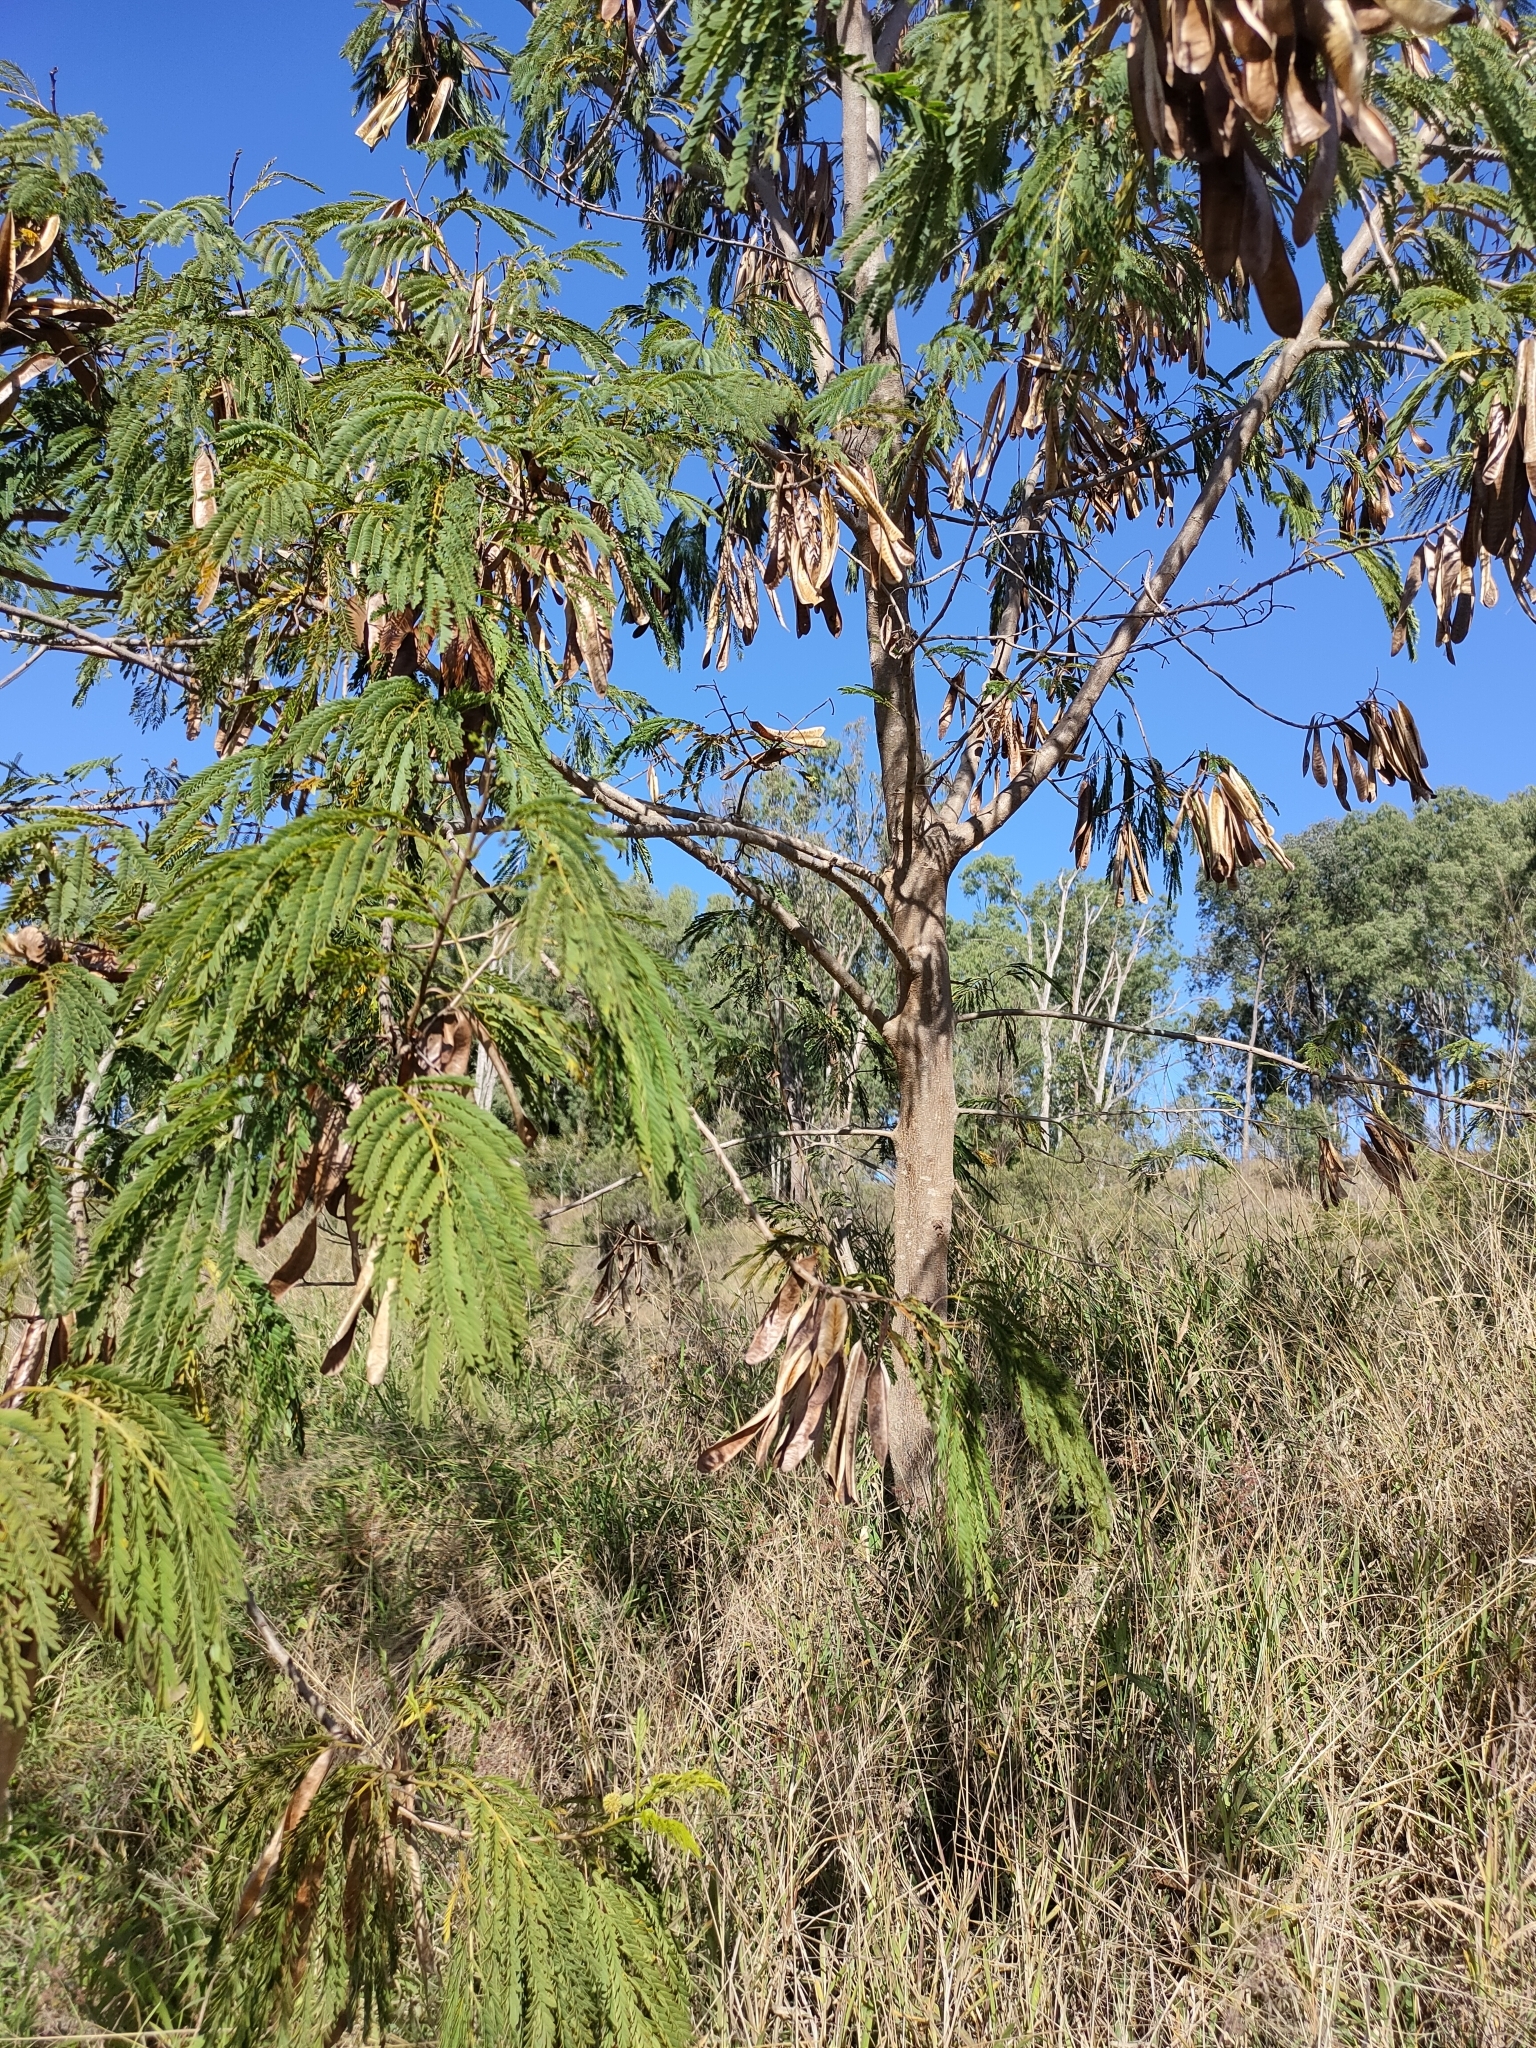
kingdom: Plantae
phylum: Tracheophyta
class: Magnoliopsida
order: Fabales
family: Fabaceae
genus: Leucaena
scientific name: Leucaena leucocephala
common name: White leadtree
